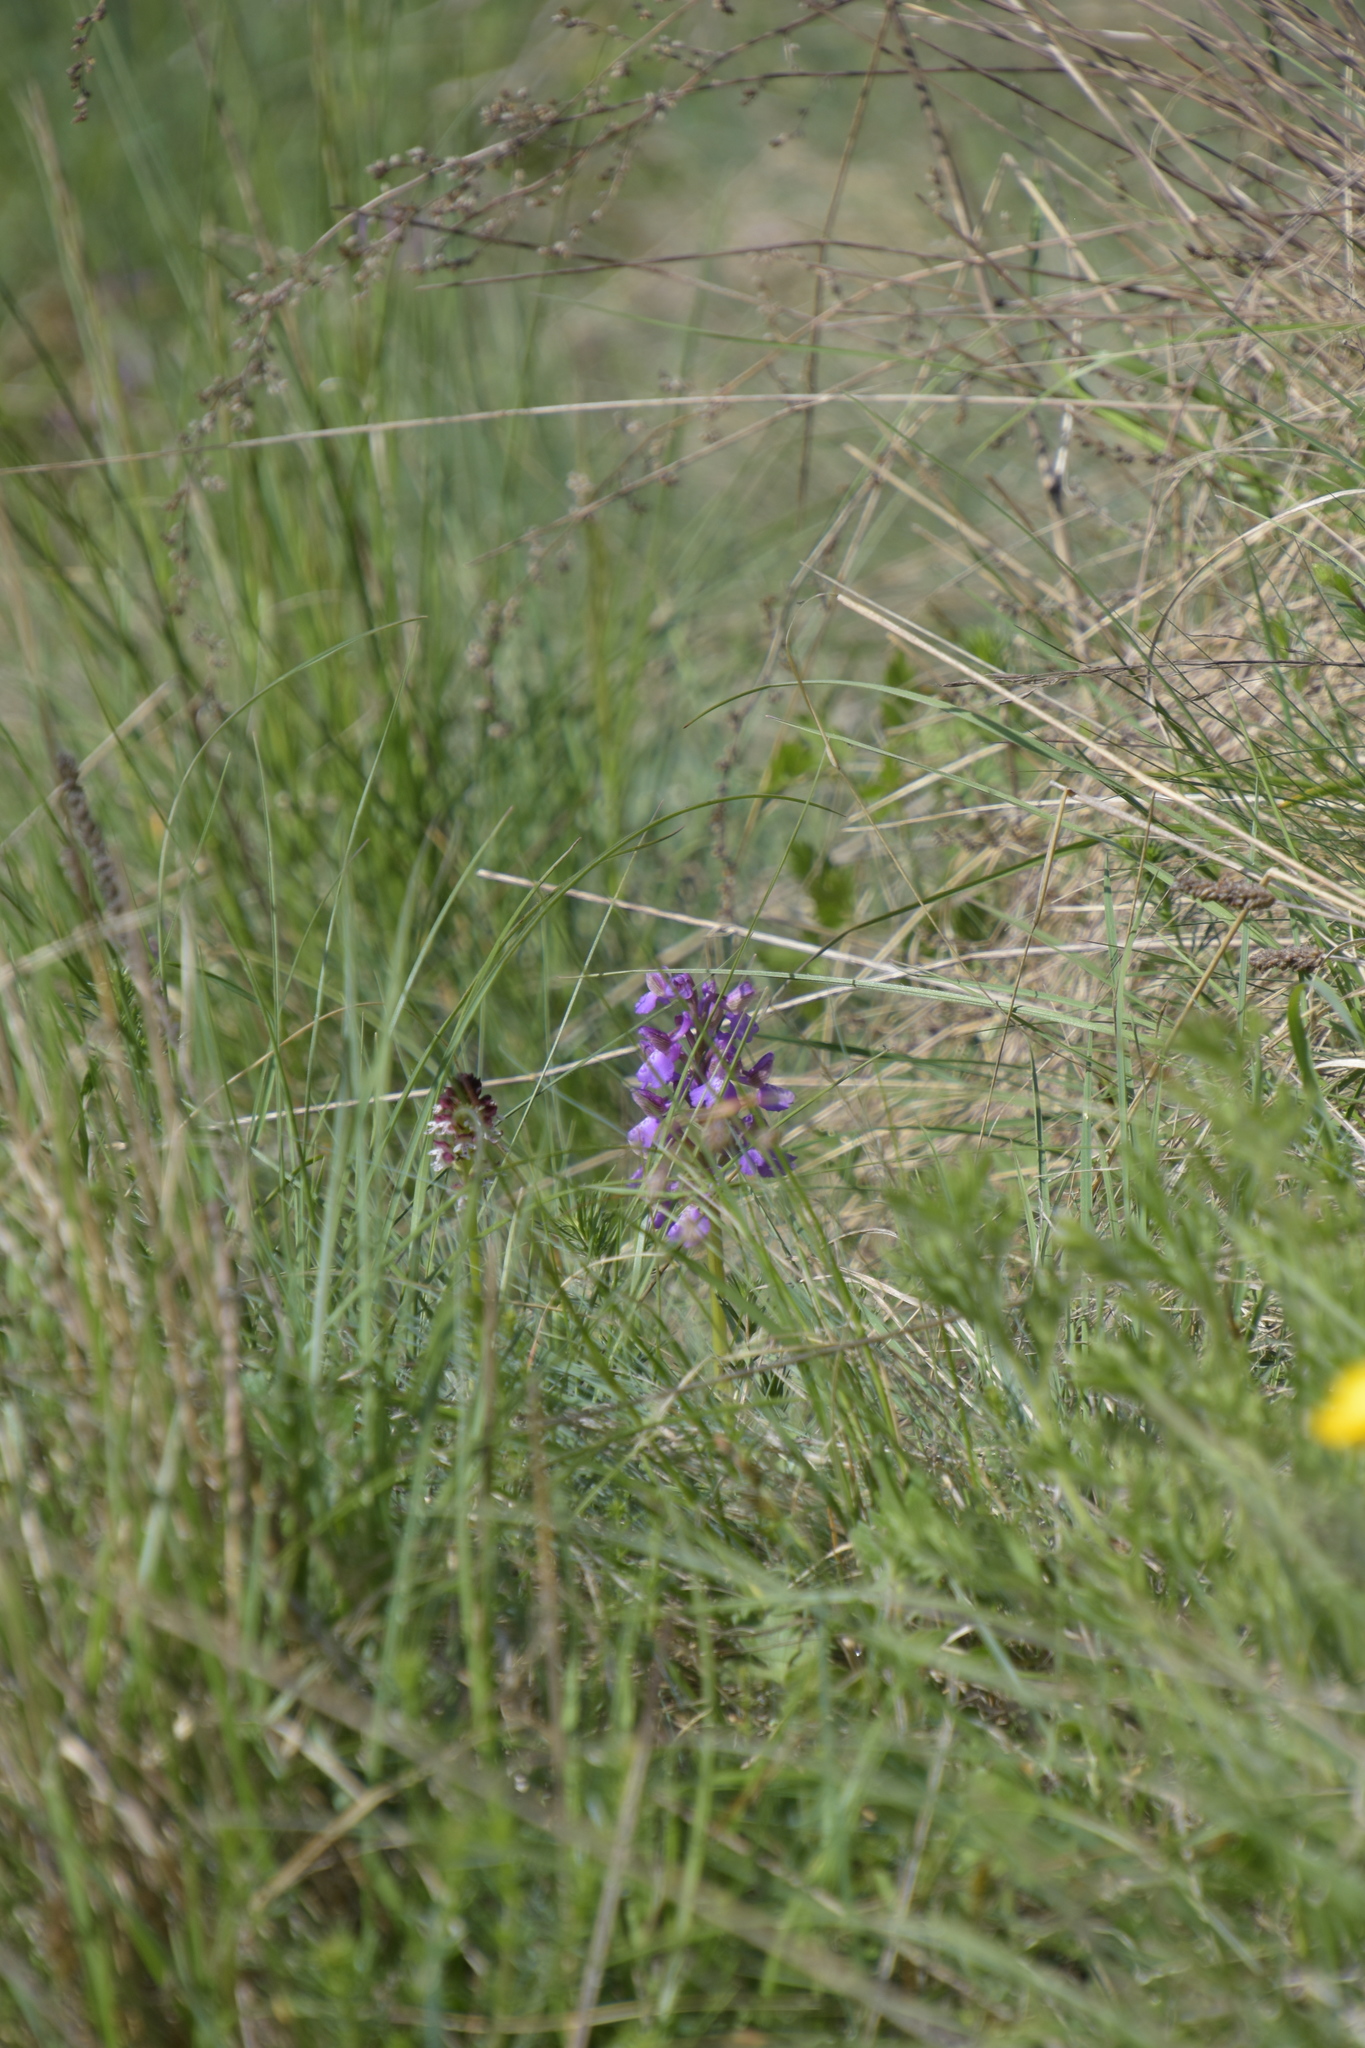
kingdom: Plantae
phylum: Tracheophyta
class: Liliopsida
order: Asparagales
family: Orchidaceae
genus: Anacamptis
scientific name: Anacamptis morio
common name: Green-winged orchid
